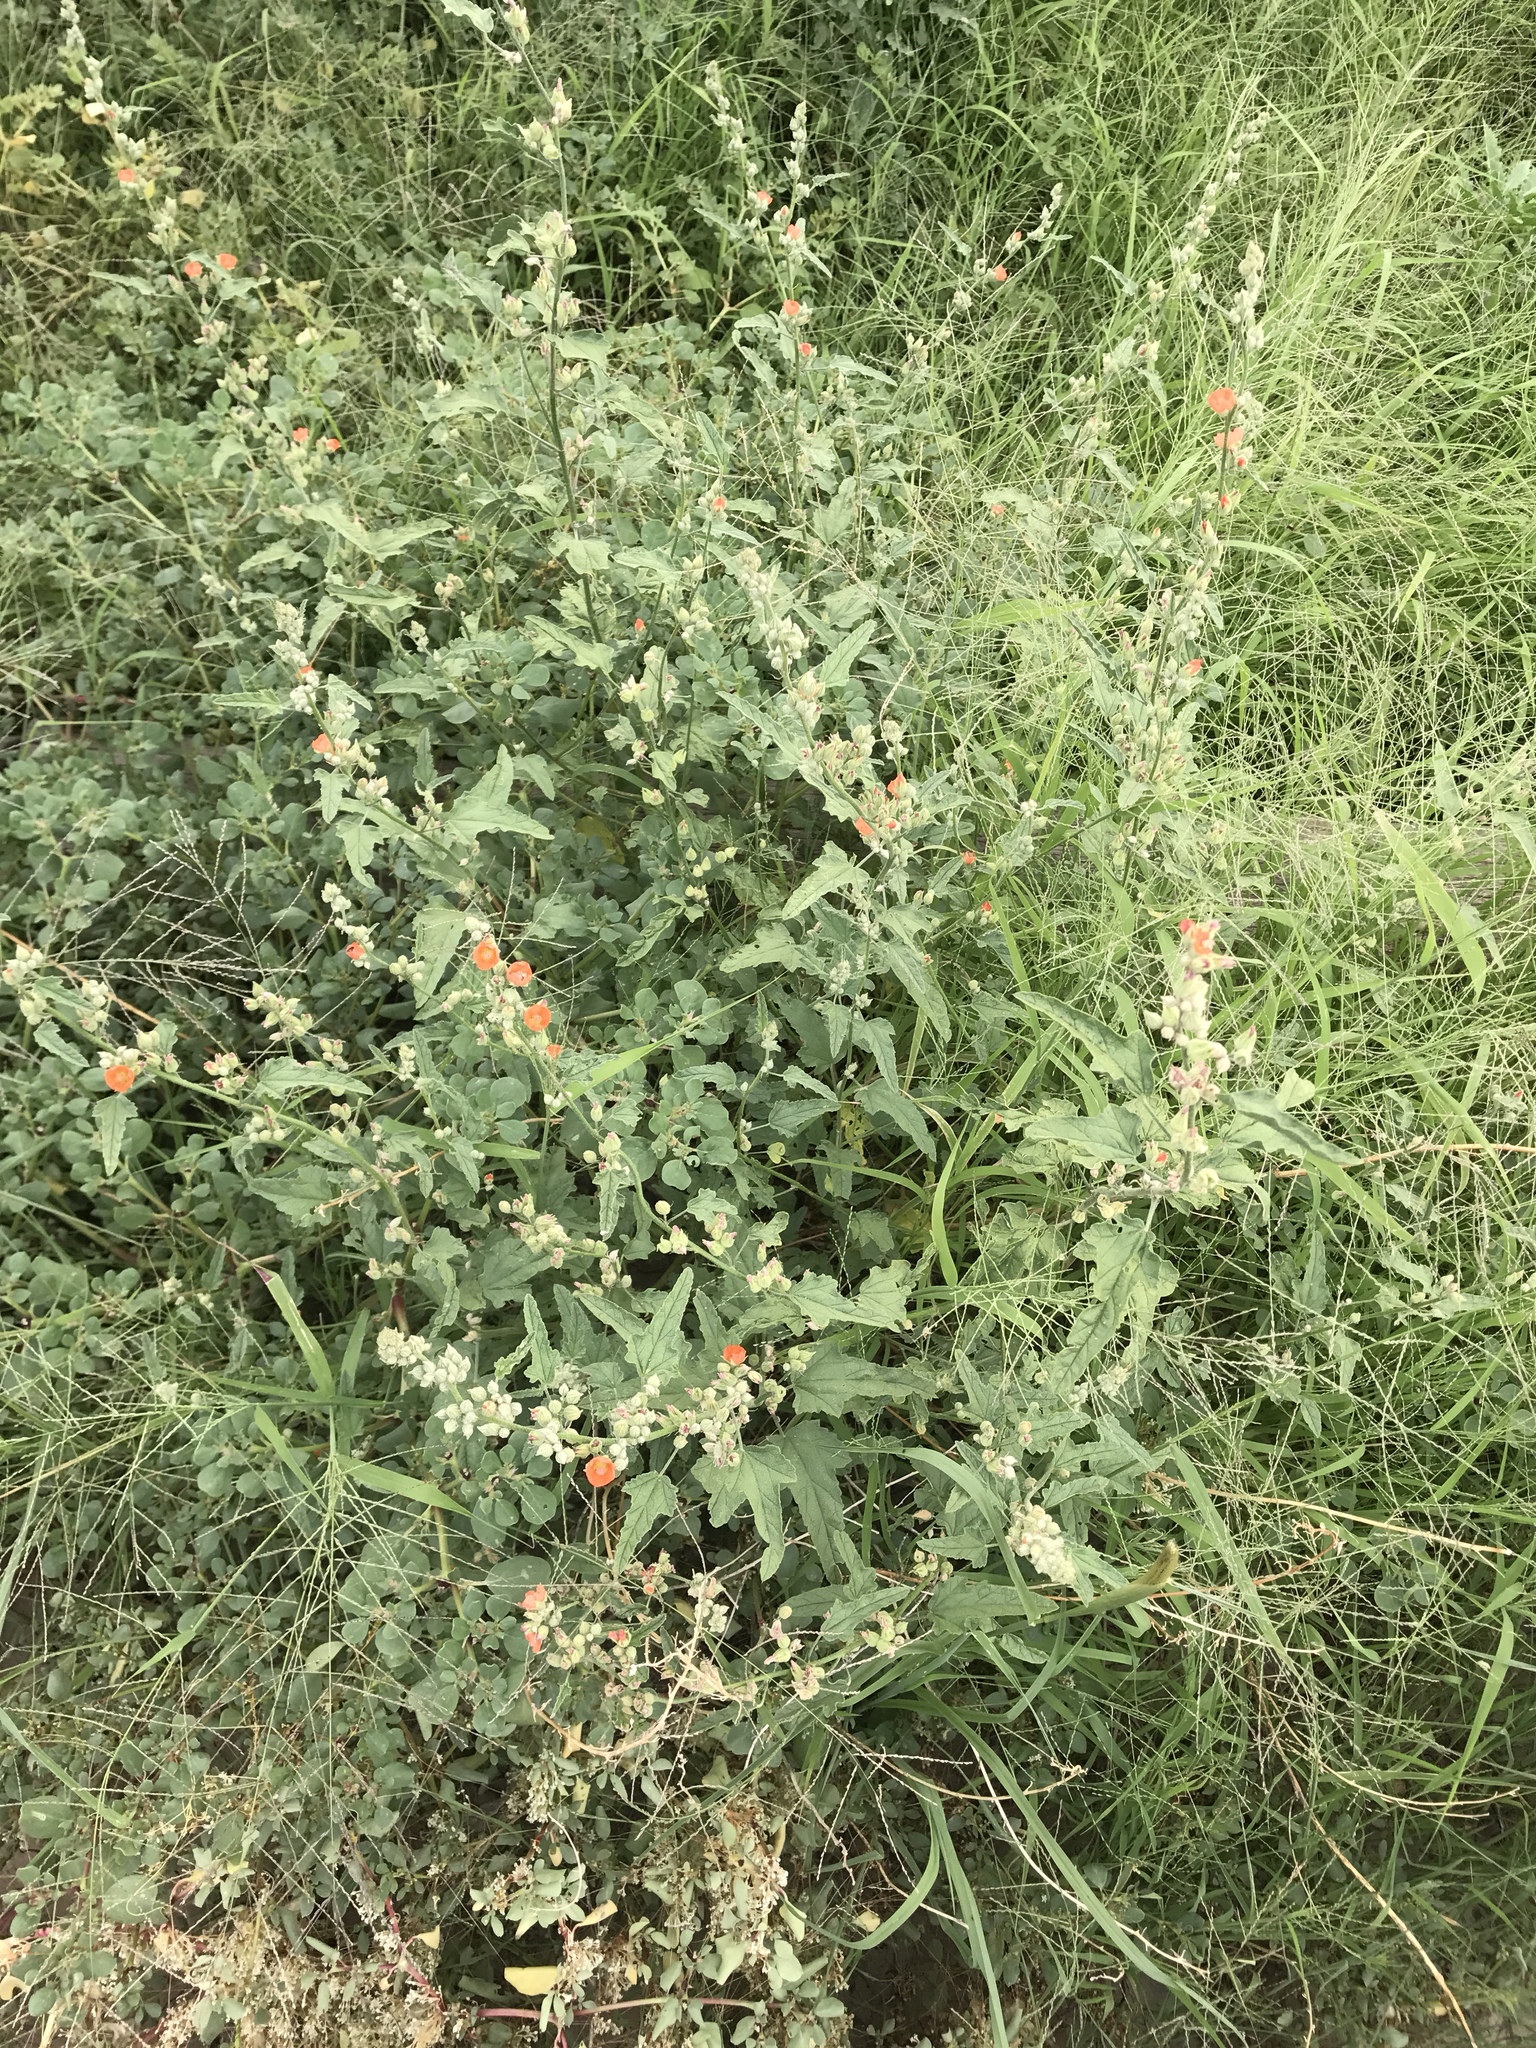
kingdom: Plantae
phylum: Tracheophyta
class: Magnoliopsida
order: Malvales
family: Malvaceae
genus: Sphaeralcea
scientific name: Sphaeralcea ambigua
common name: Apricot globe-mallow
